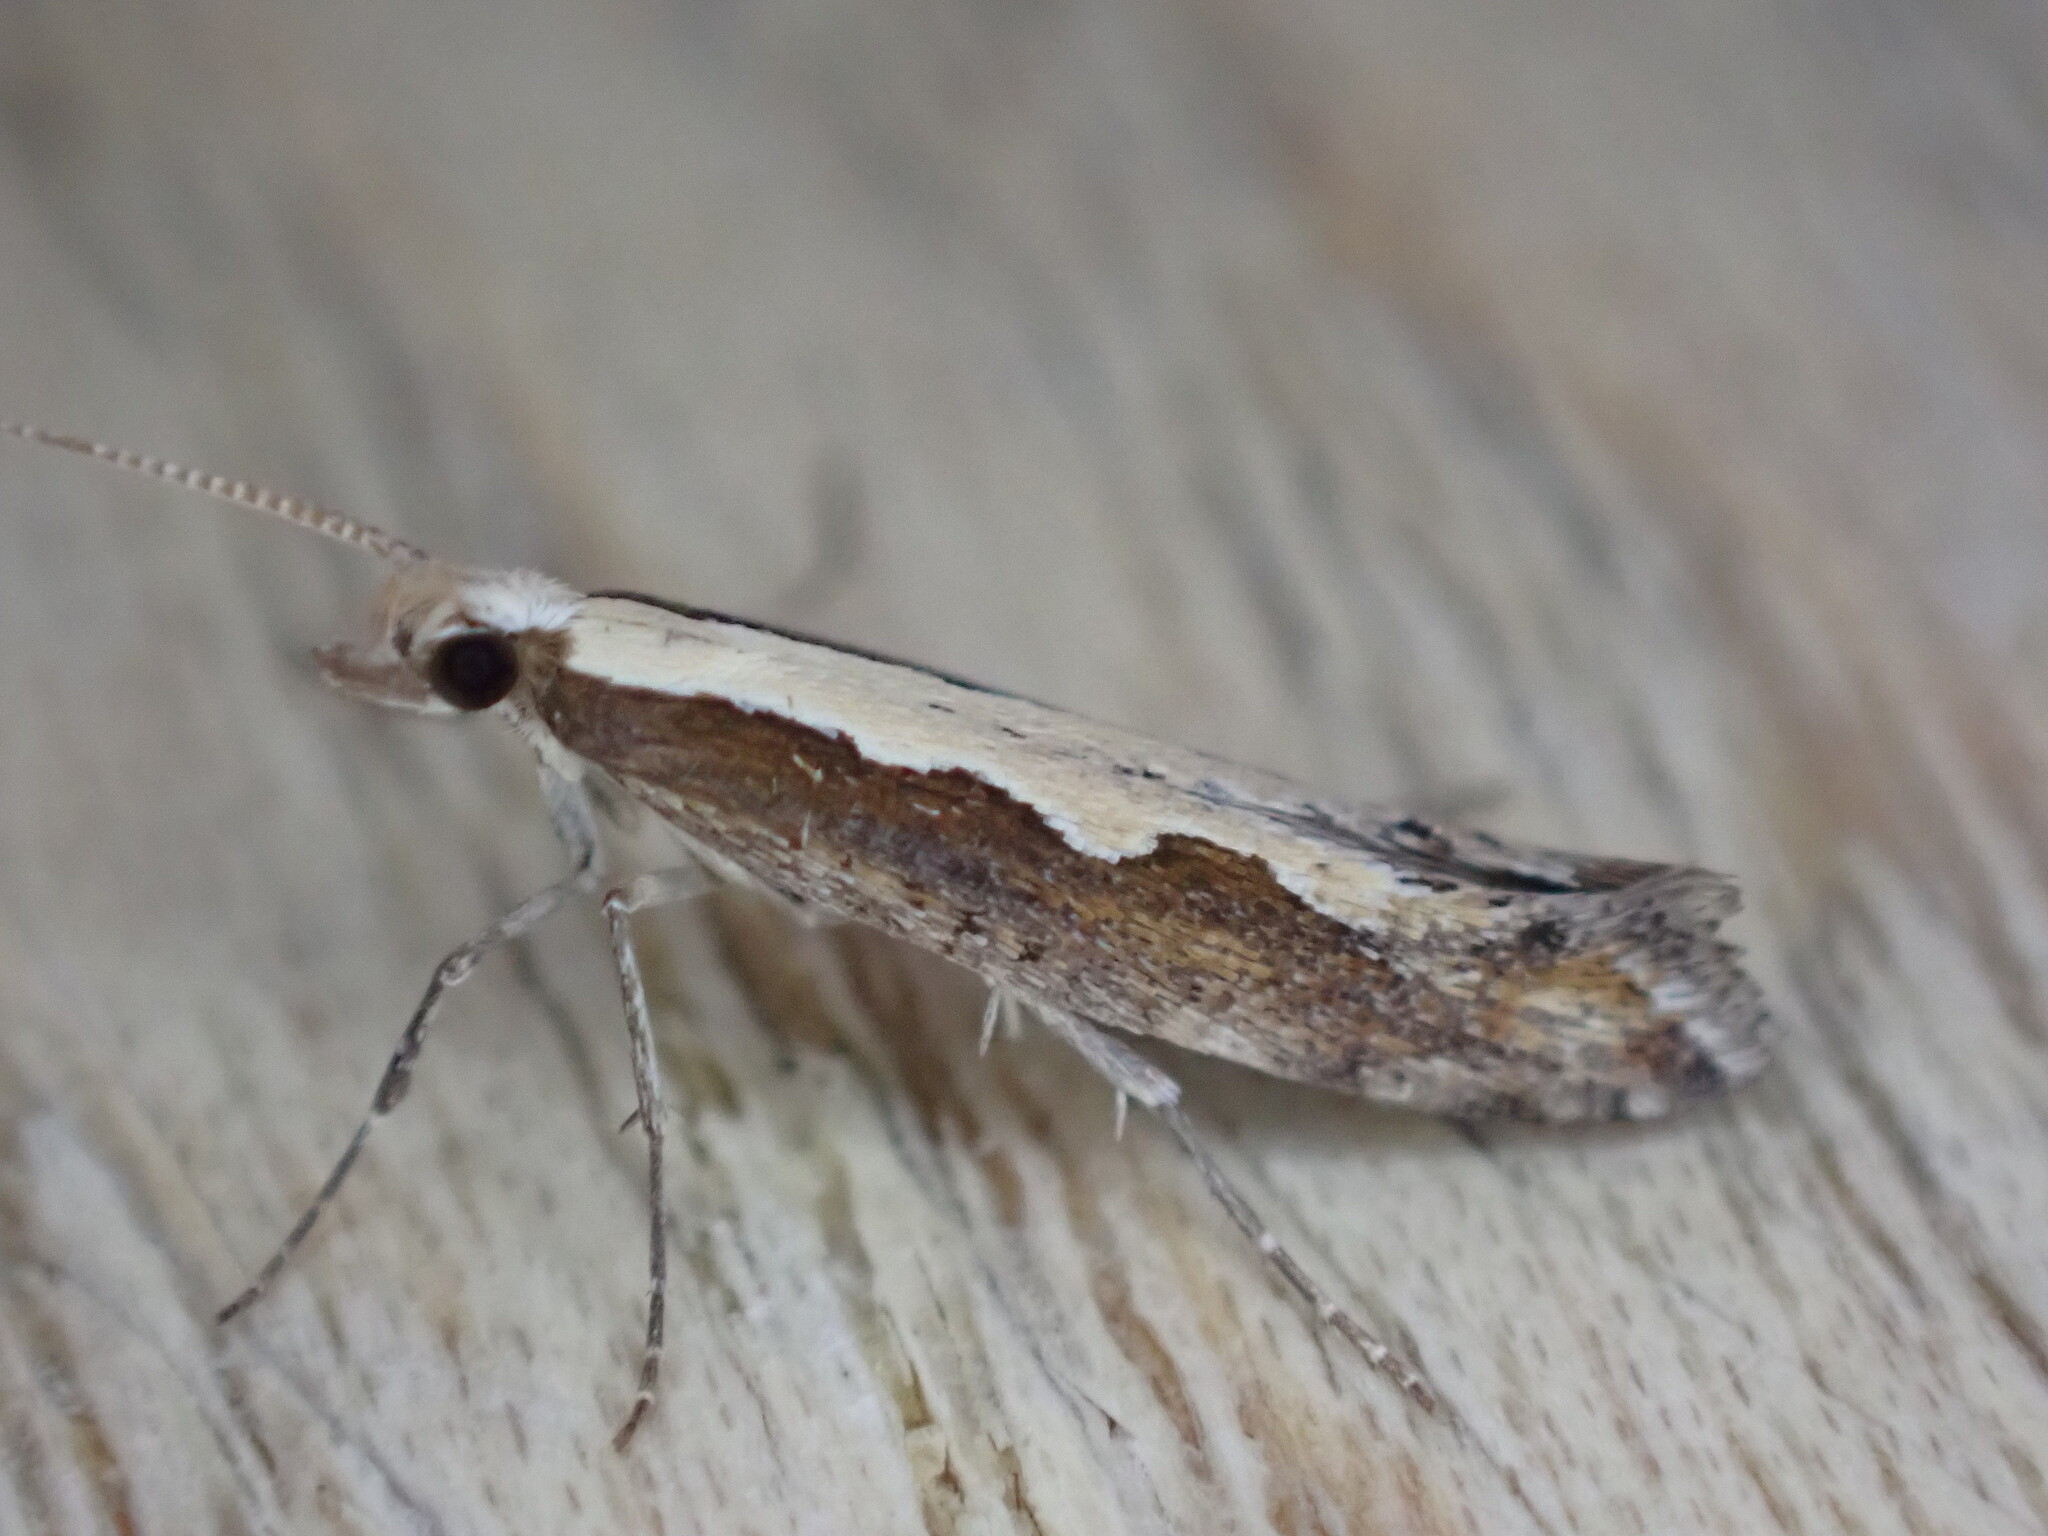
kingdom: Animalia
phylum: Arthropoda
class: Insecta
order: Lepidoptera
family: Plutellidae
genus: Plutella
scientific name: Plutella xylostella
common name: Diamond-back moth
